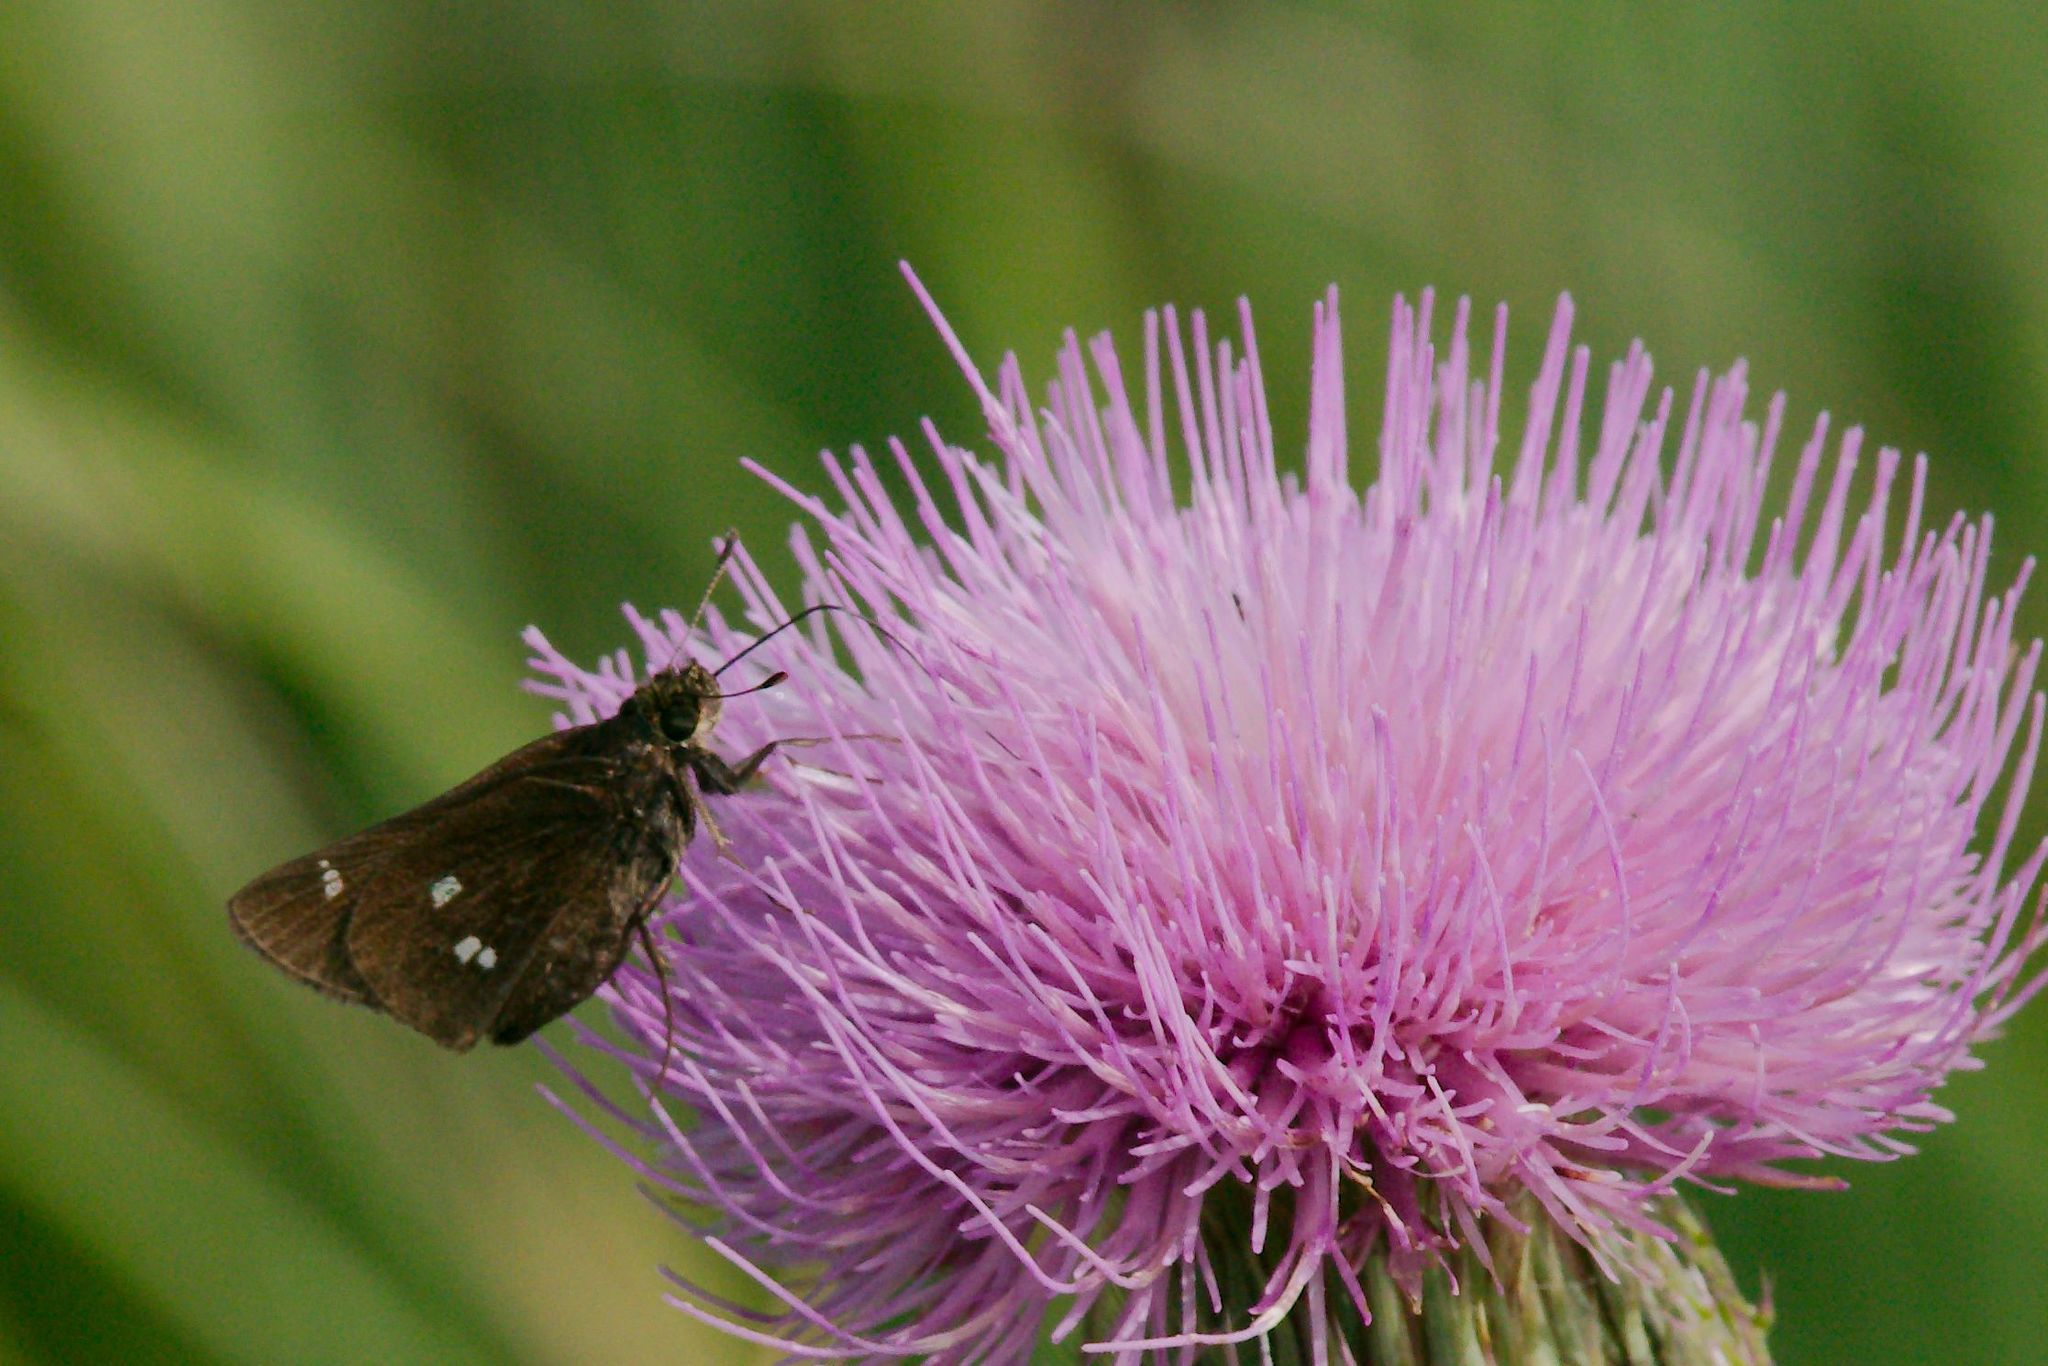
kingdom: Animalia
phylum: Arthropoda
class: Insecta
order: Lepidoptera
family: Hesperiidae
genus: Oligoria
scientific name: Oligoria maculata
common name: Twin-spot skipper
